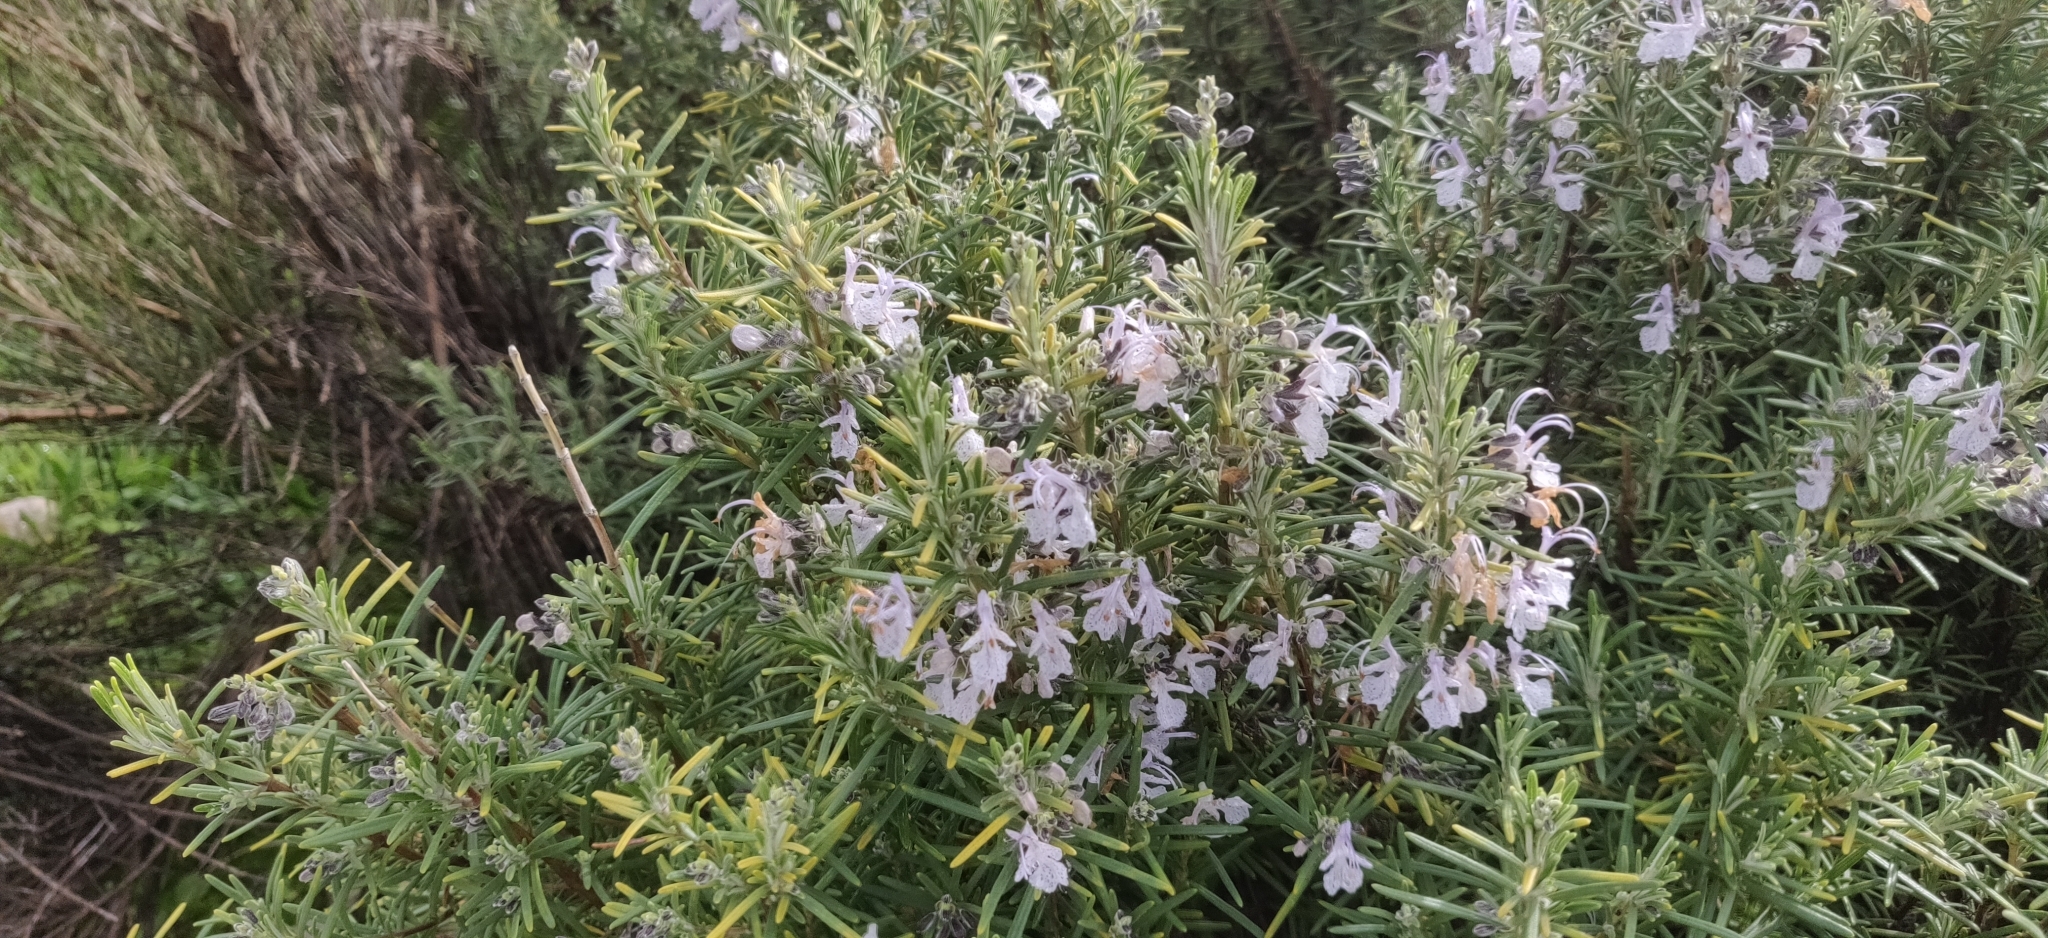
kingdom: Plantae
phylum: Tracheophyta
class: Magnoliopsida
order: Lamiales
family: Lamiaceae
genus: Salvia
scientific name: Salvia rosmarinus
